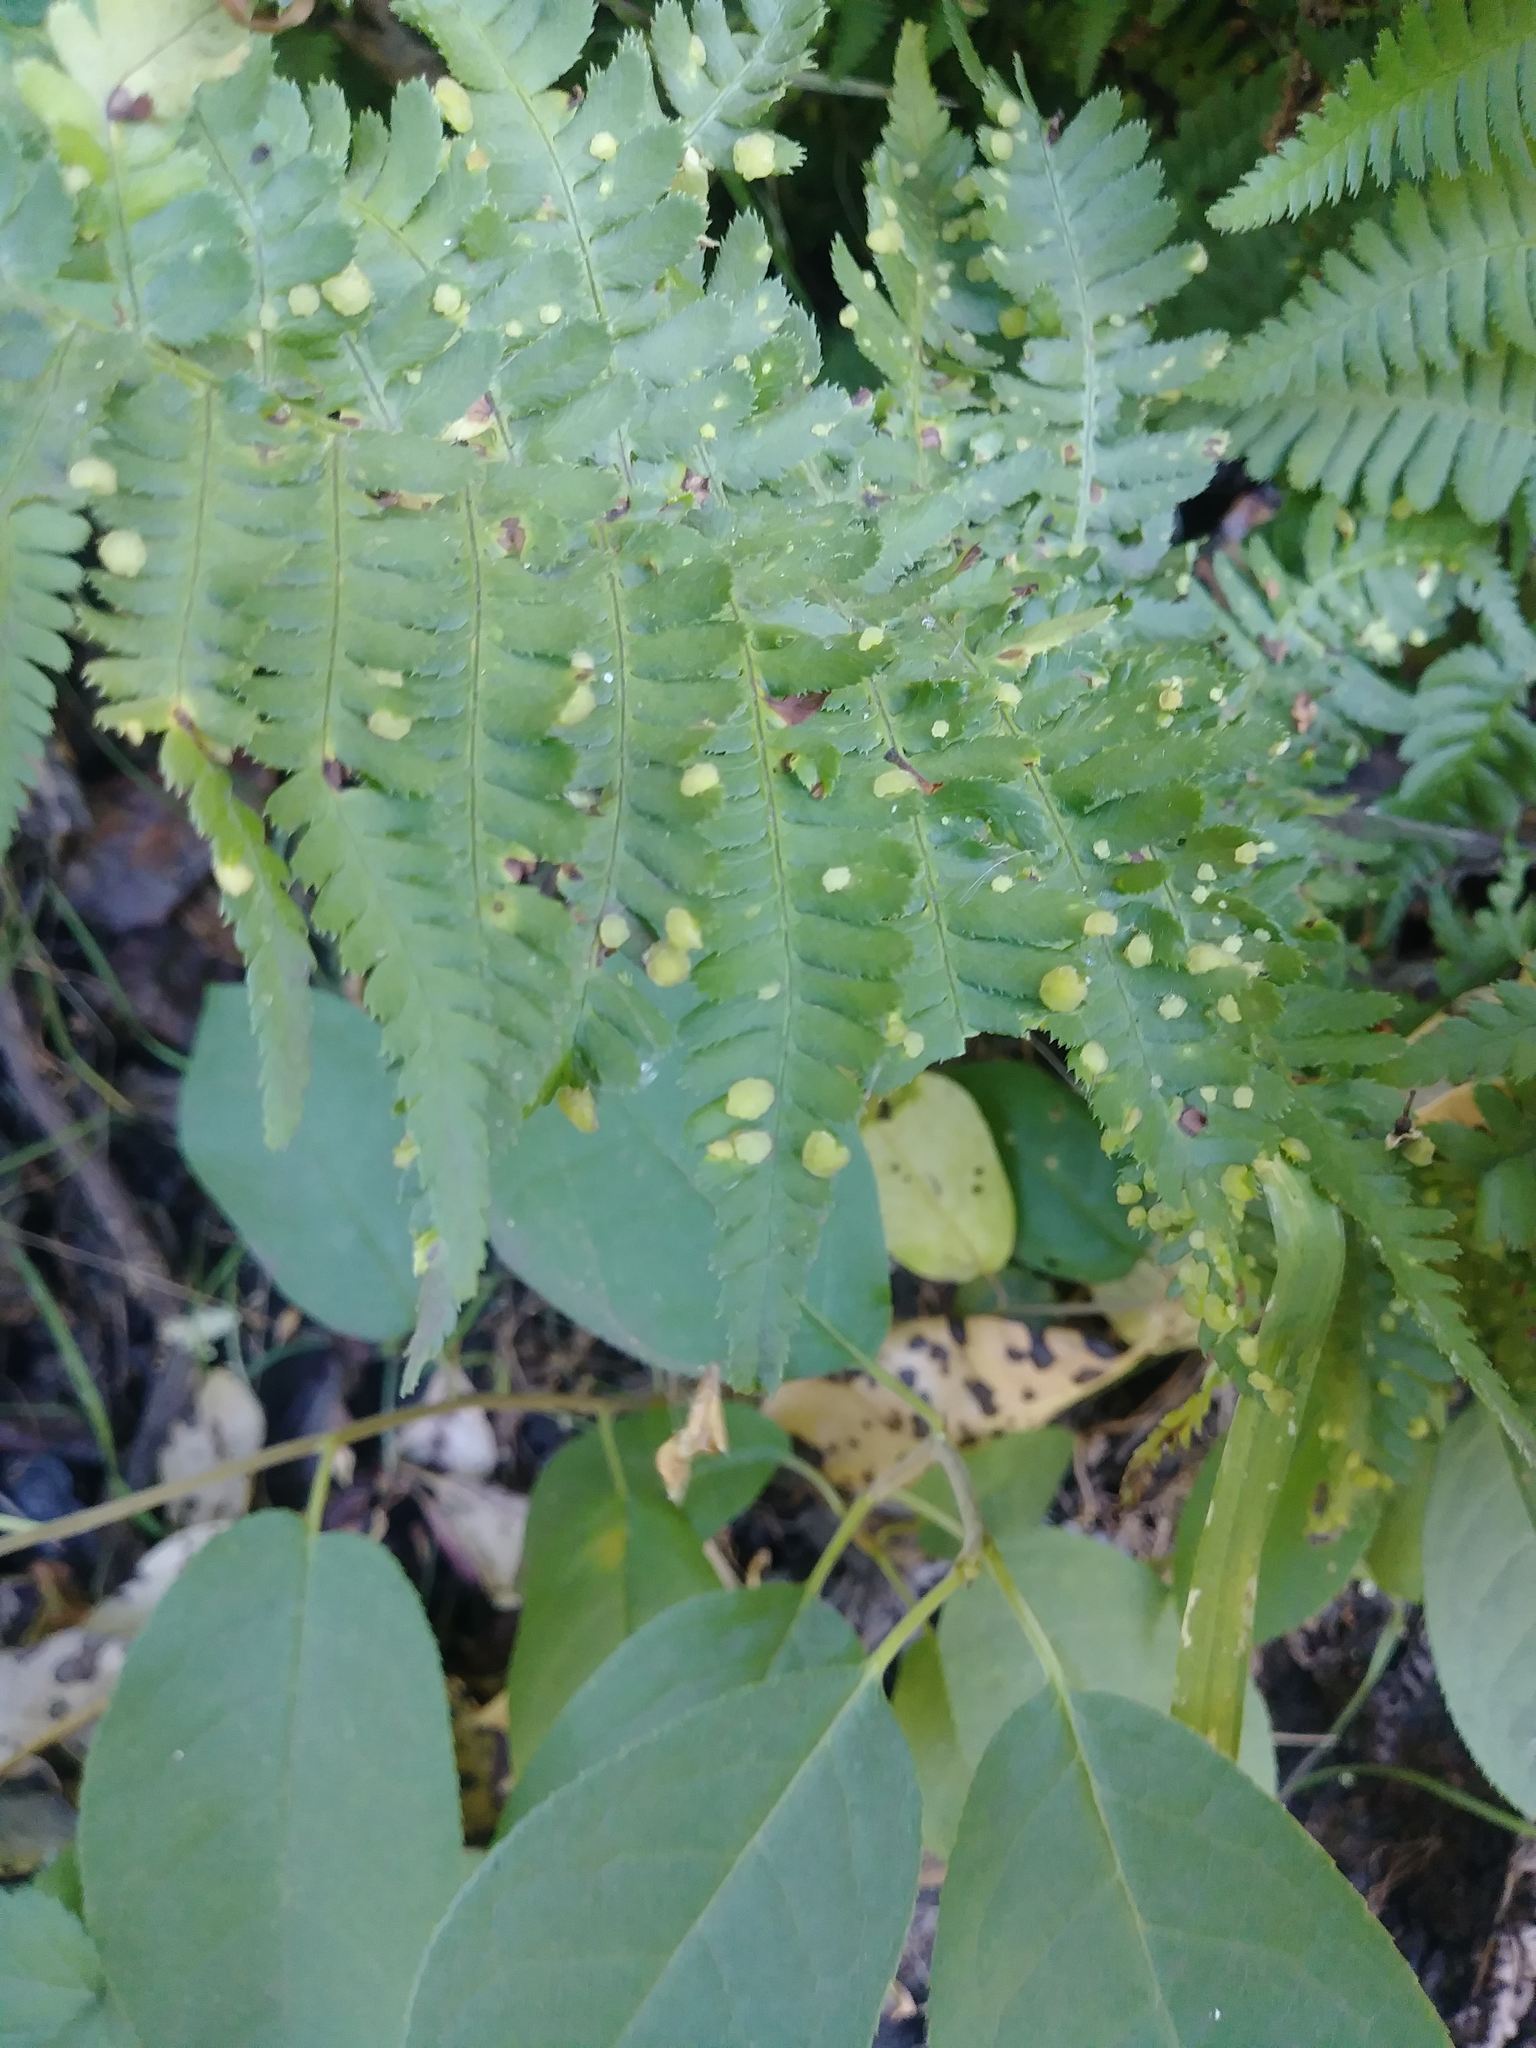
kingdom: Plantae
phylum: Tracheophyta
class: Polypodiopsida
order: Polypodiales
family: Dryopteridaceae
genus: Dryopteris
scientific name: Dryopteris arguta
